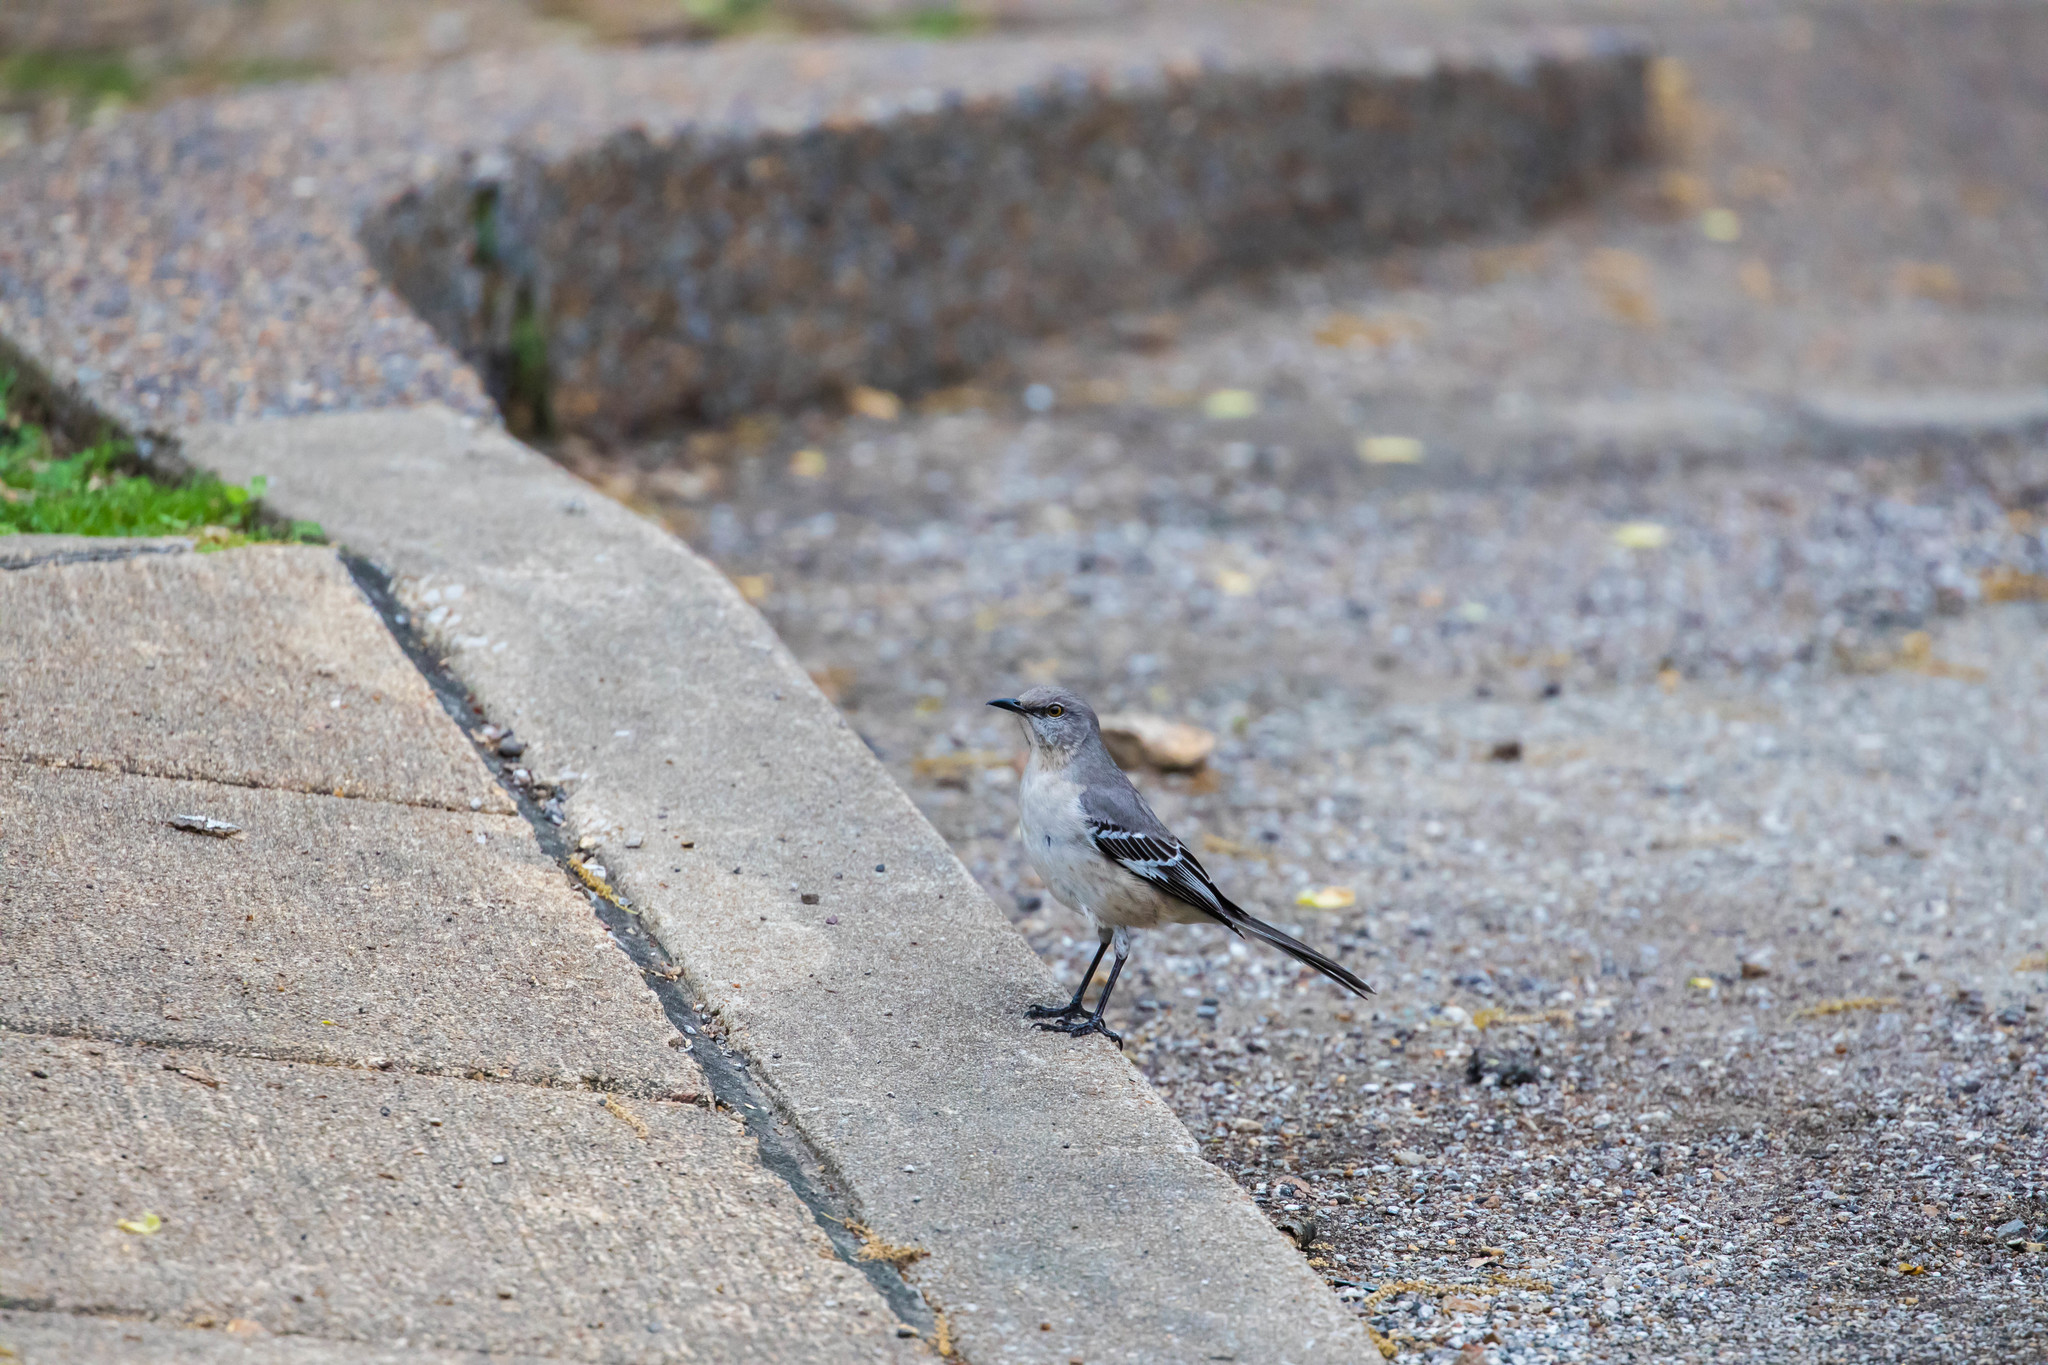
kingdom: Animalia
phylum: Chordata
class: Aves
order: Passeriformes
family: Mimidae
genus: Mimus
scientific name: Mimus polyglottos
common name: Northern mockingbird
